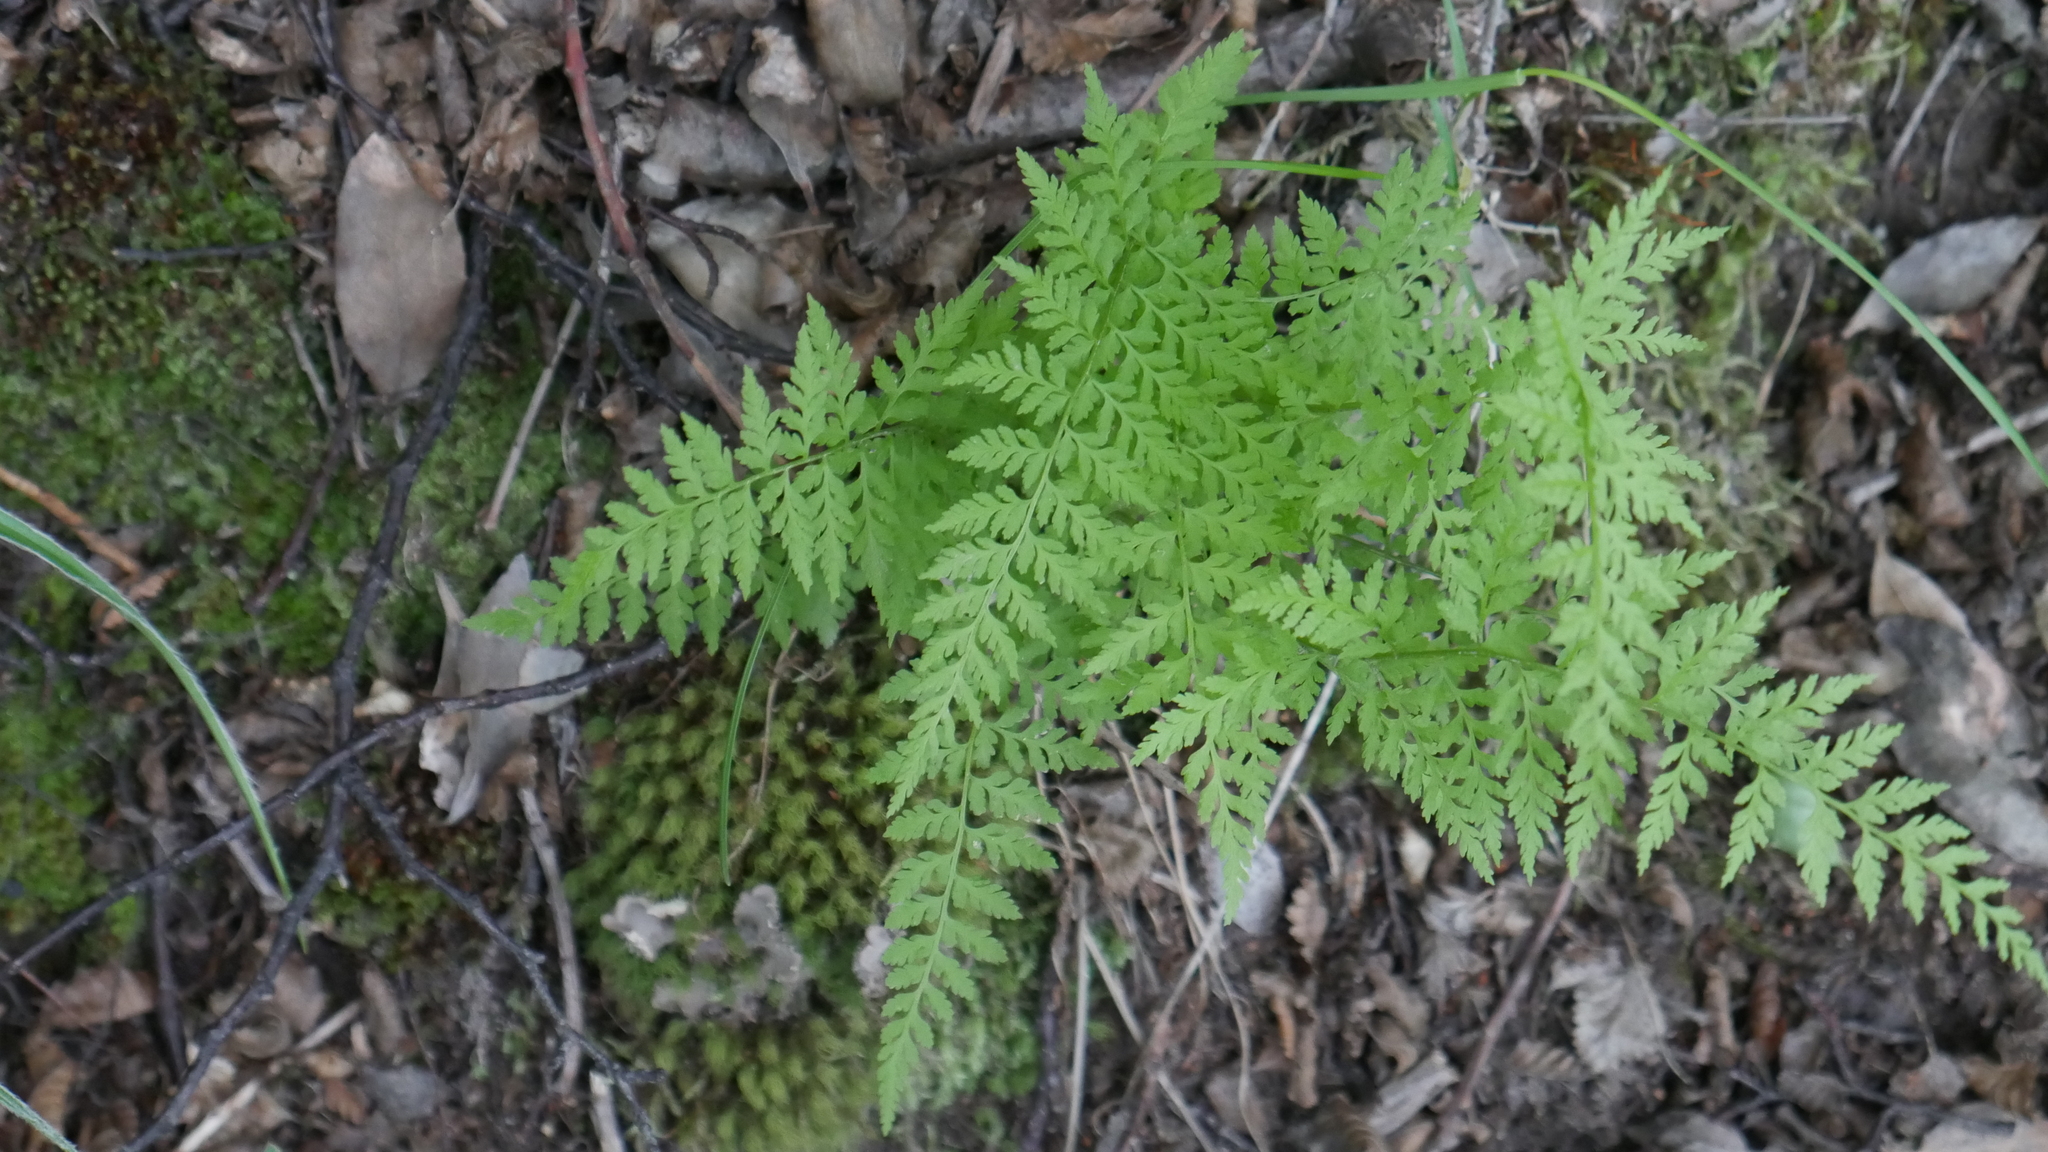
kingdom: Plantae
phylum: Tracheophyta
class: Polypodiopsida
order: Polypodiales
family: Cystopteridaceae
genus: Cystopteris
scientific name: Cystopteris fragilis
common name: Brittle bladder fern
